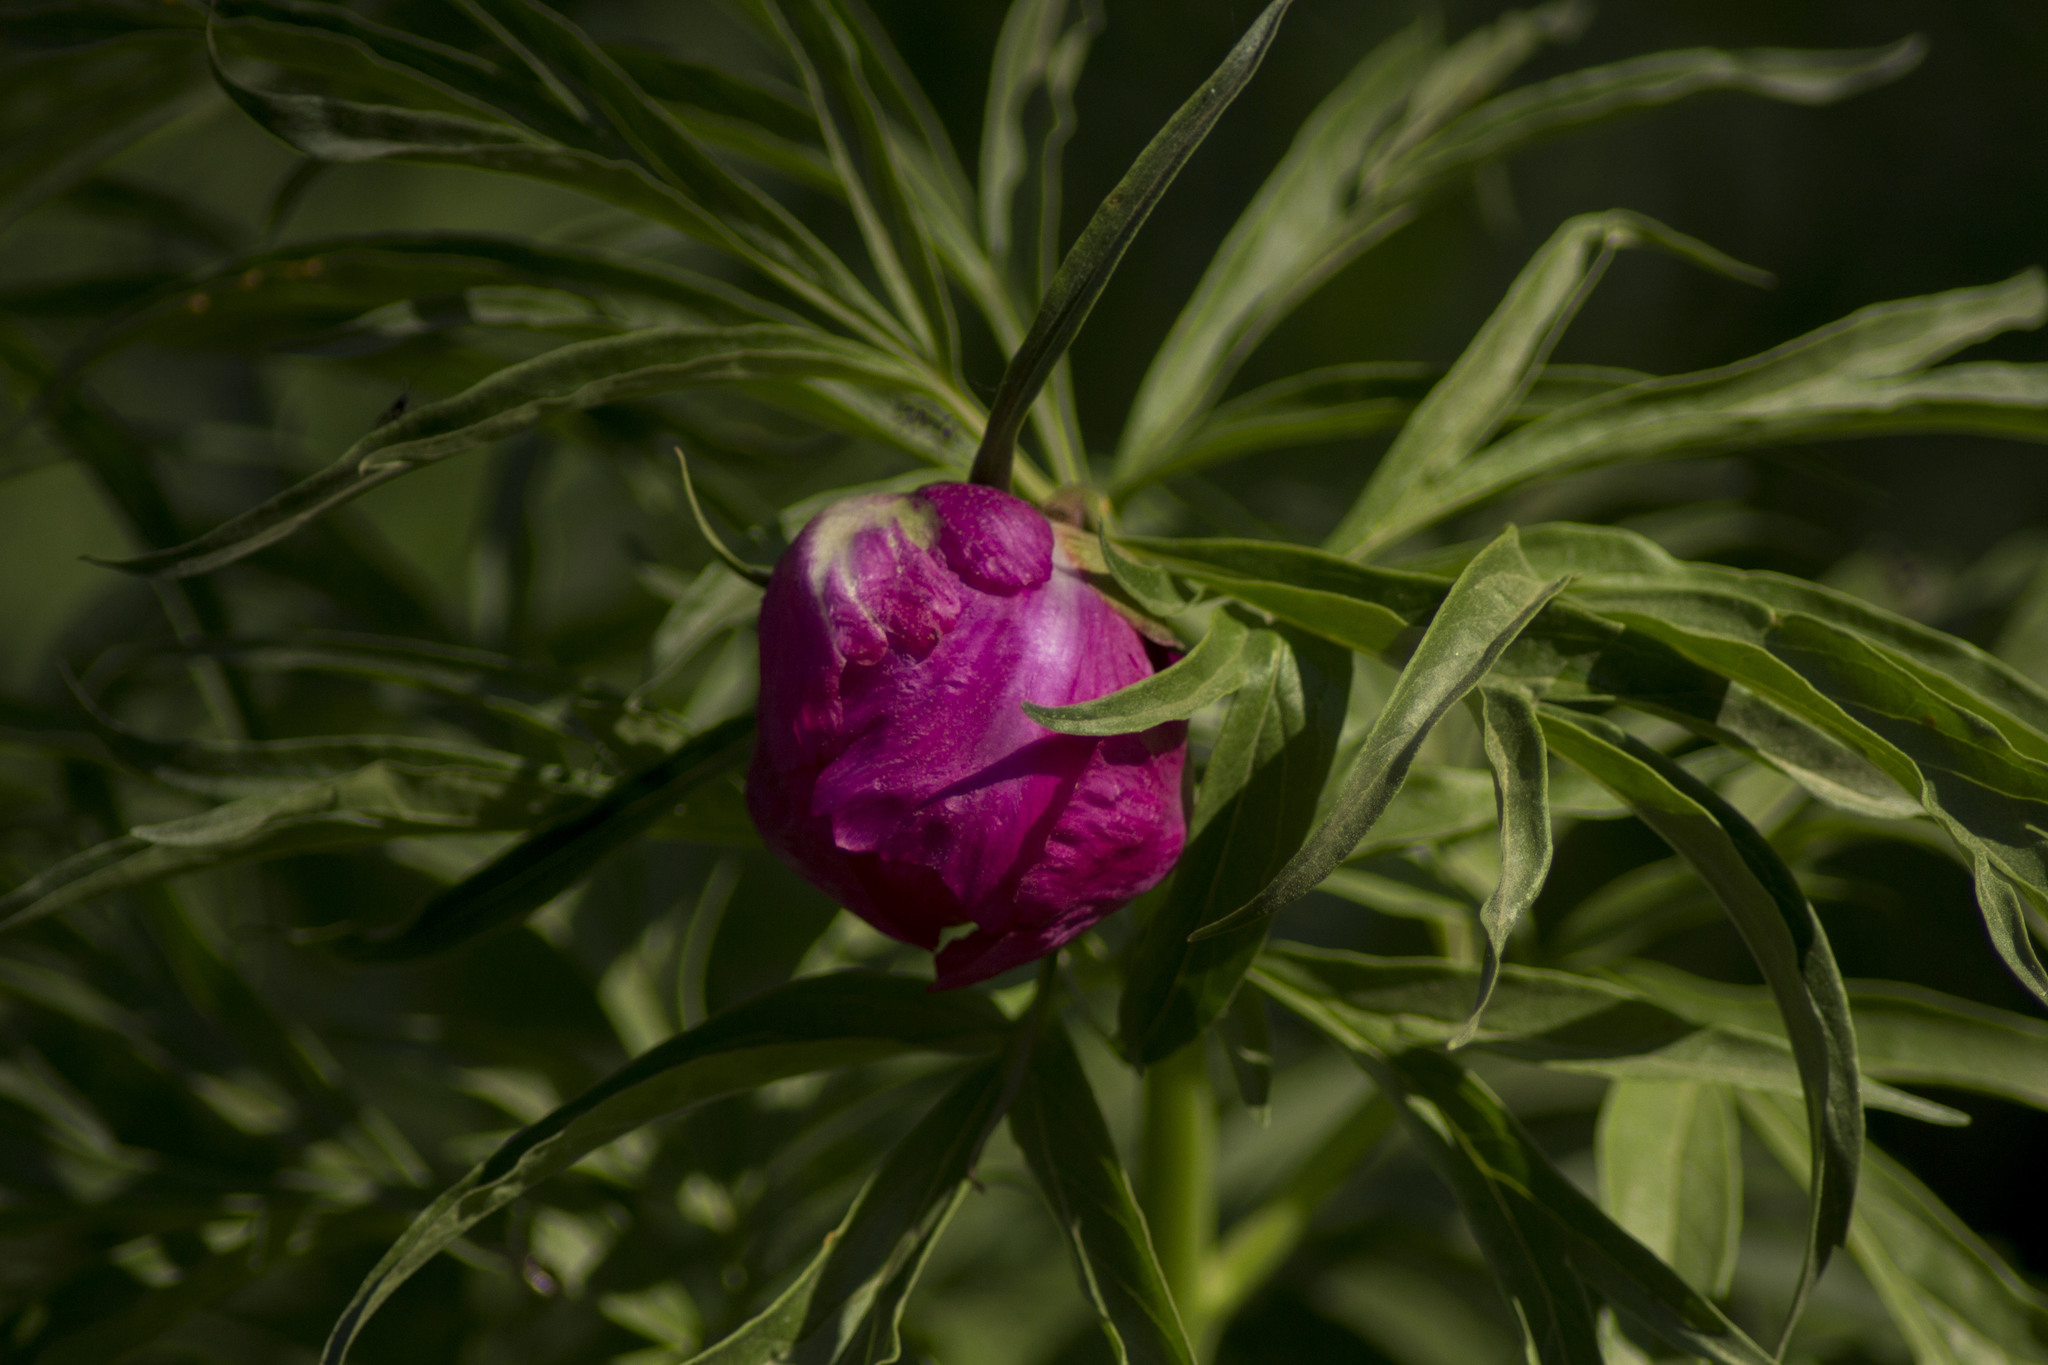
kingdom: Plantae
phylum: Tracheophyta
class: Magnoliopsida
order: Saxifragales
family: Paeoniaceae
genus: Paeonia
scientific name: Paeonia anomala
